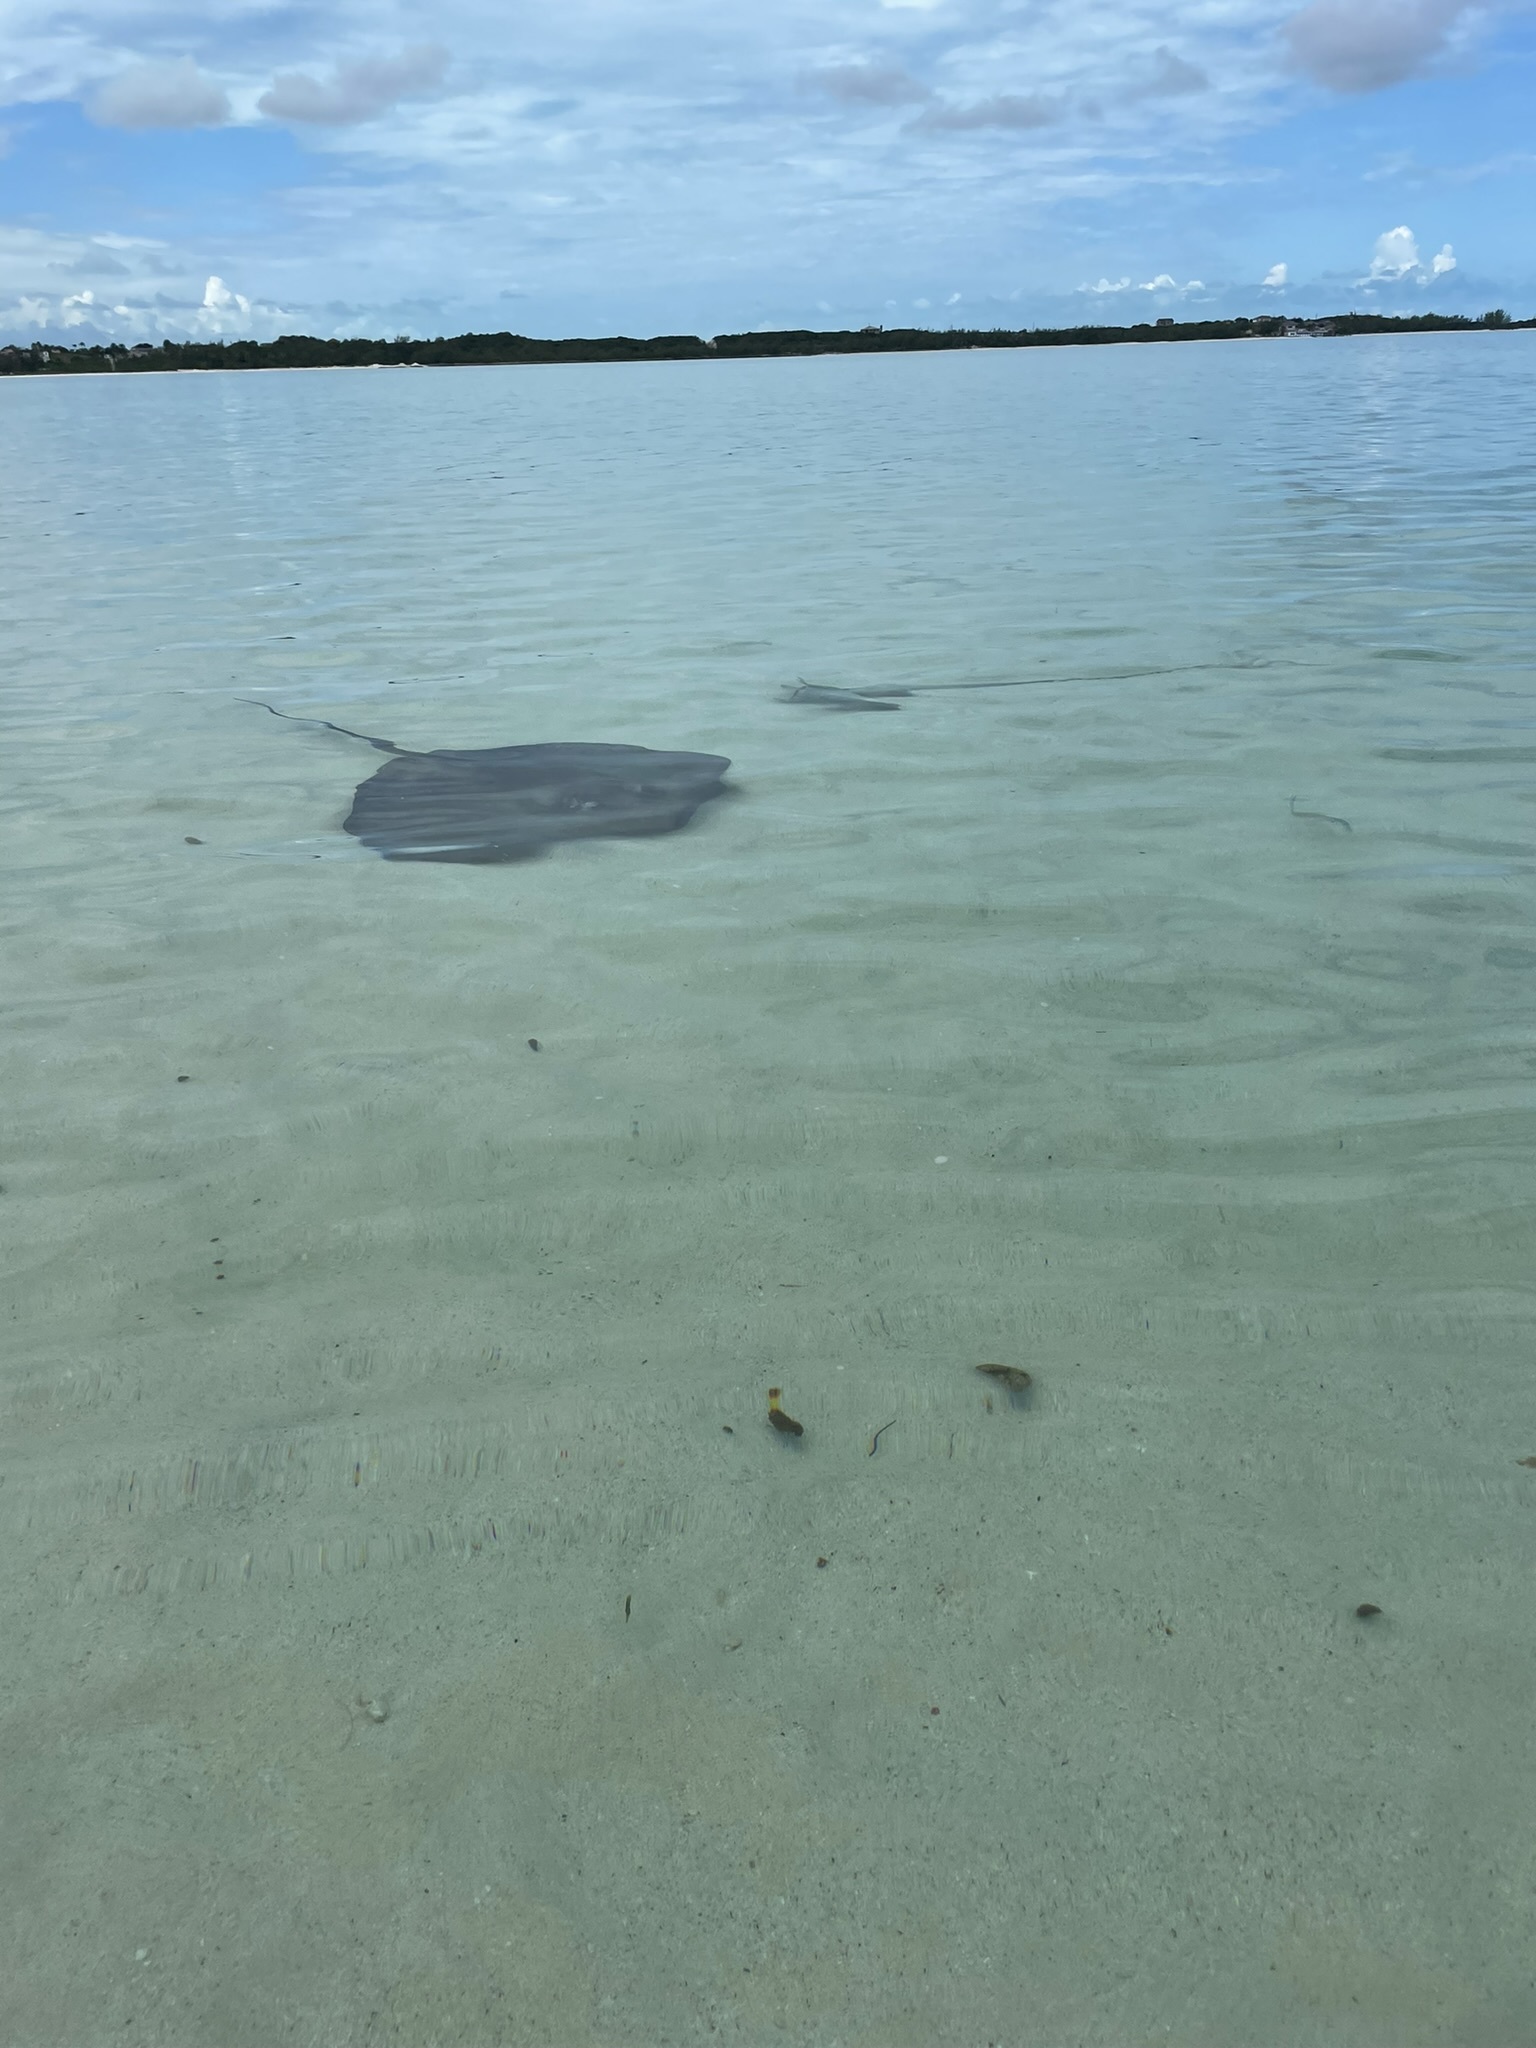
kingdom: Animalia
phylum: Chordata
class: Elasmobranchii
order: Myliobatiformes
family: Dasyatidae
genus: Hypanus
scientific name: Hypanus americanus
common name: Southern stingray
